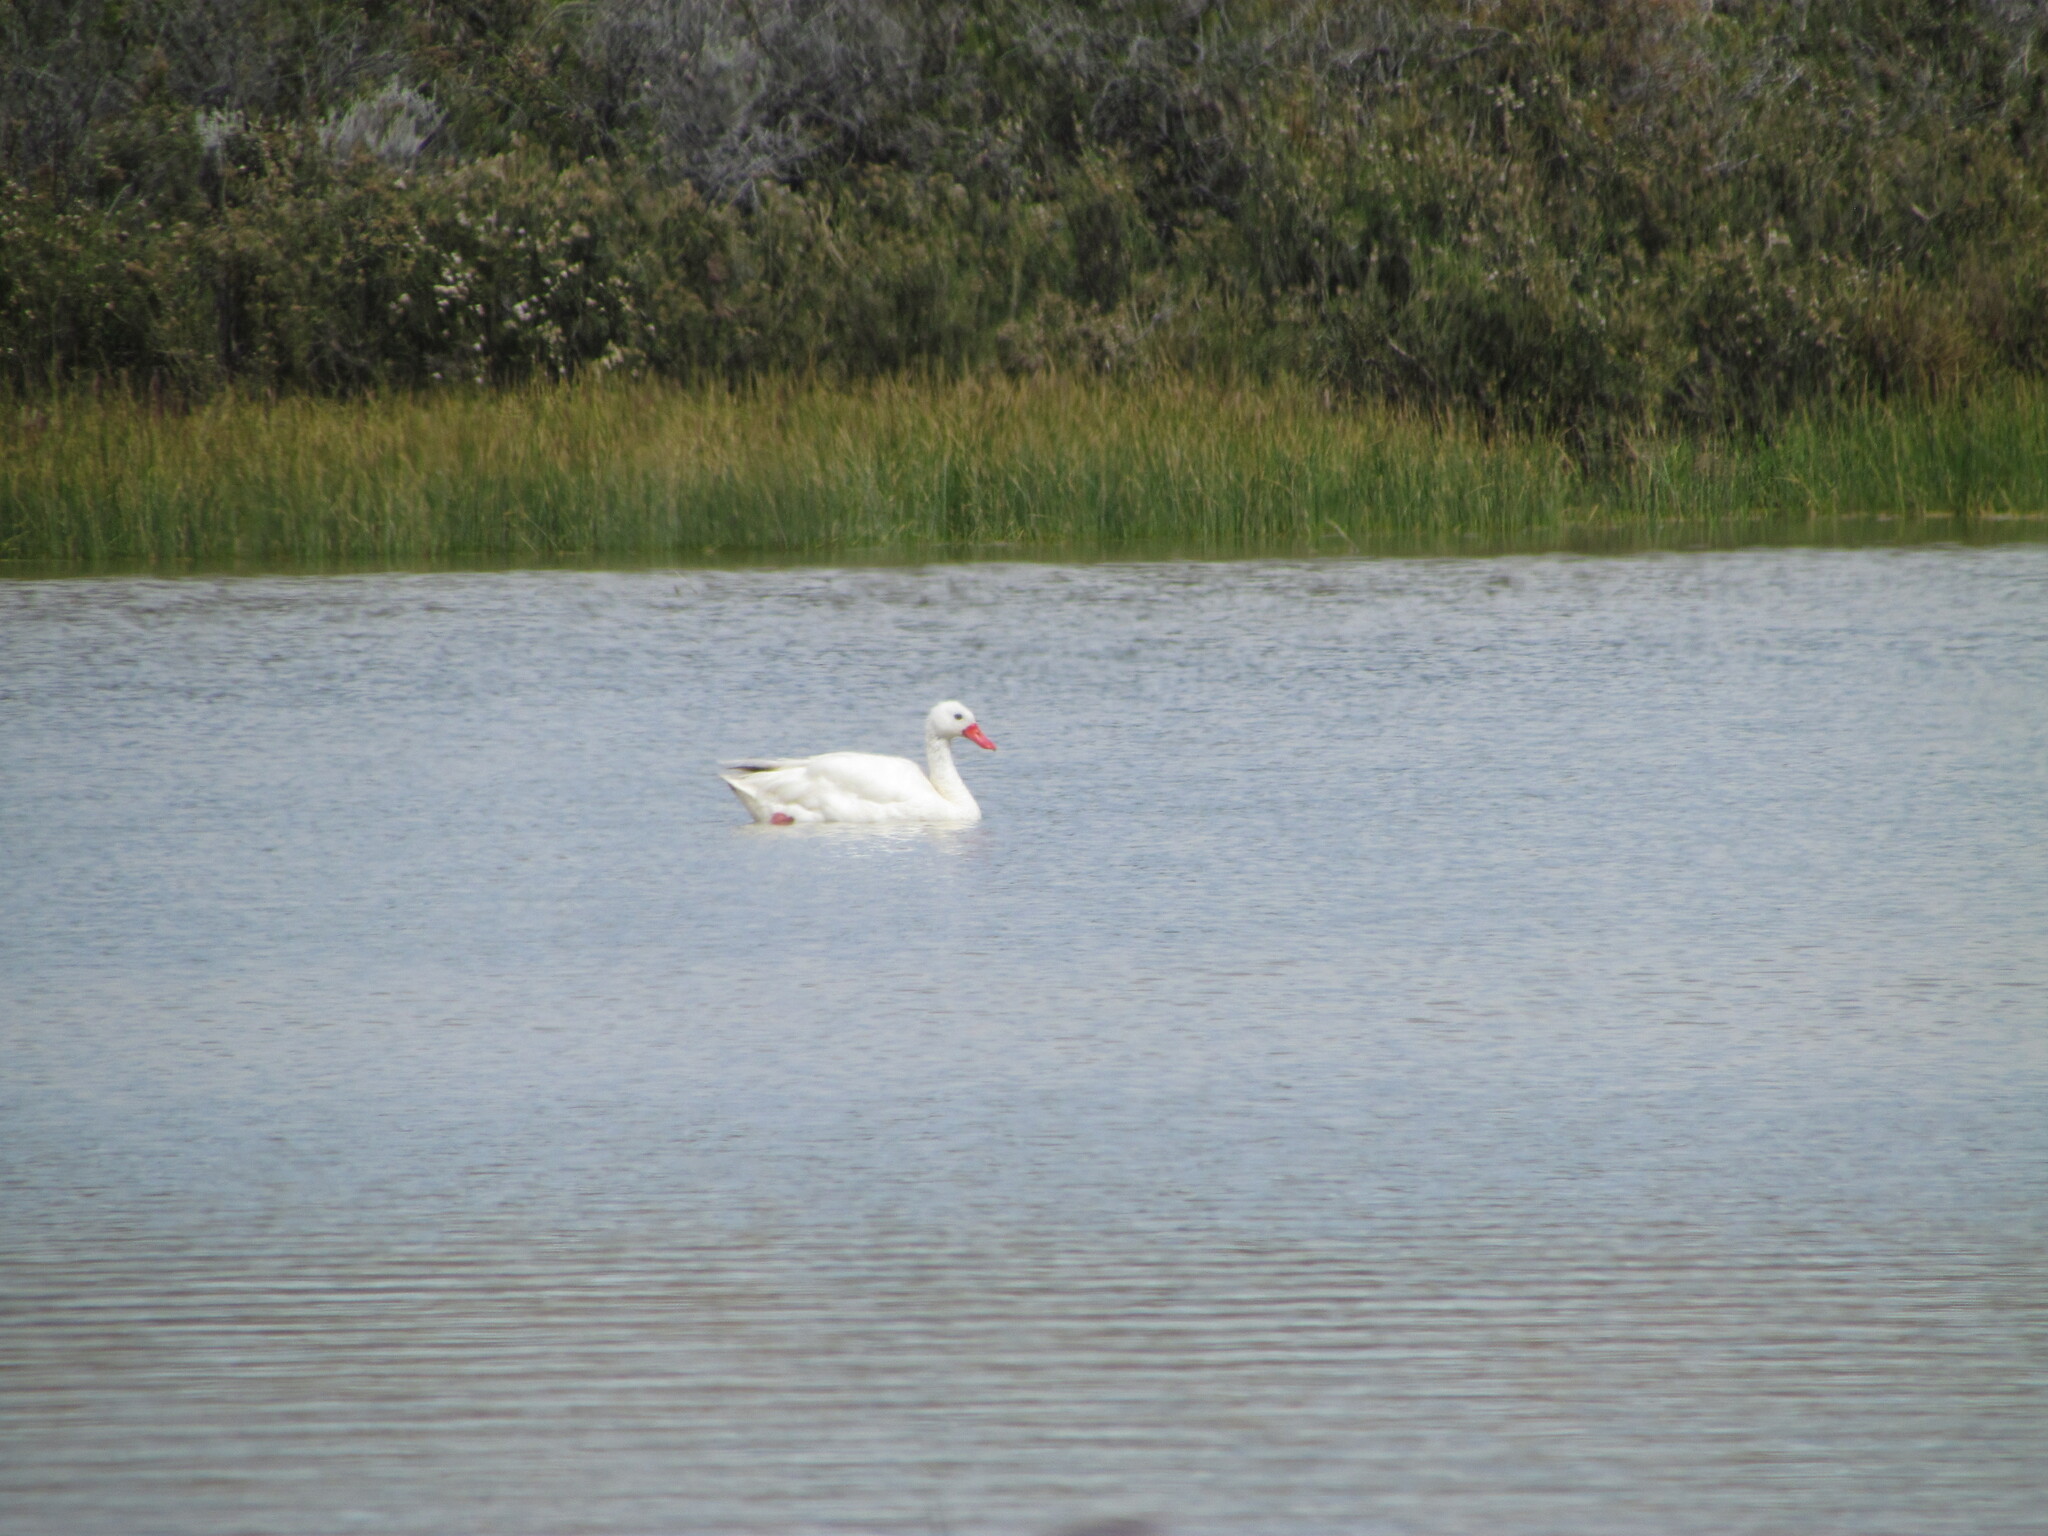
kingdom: Animalia
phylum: Chordata
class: Aves
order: Anseriformes
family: Anatidae
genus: Coscoroba
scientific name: Coscoroba coscoroba
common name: Coscoroba swan
